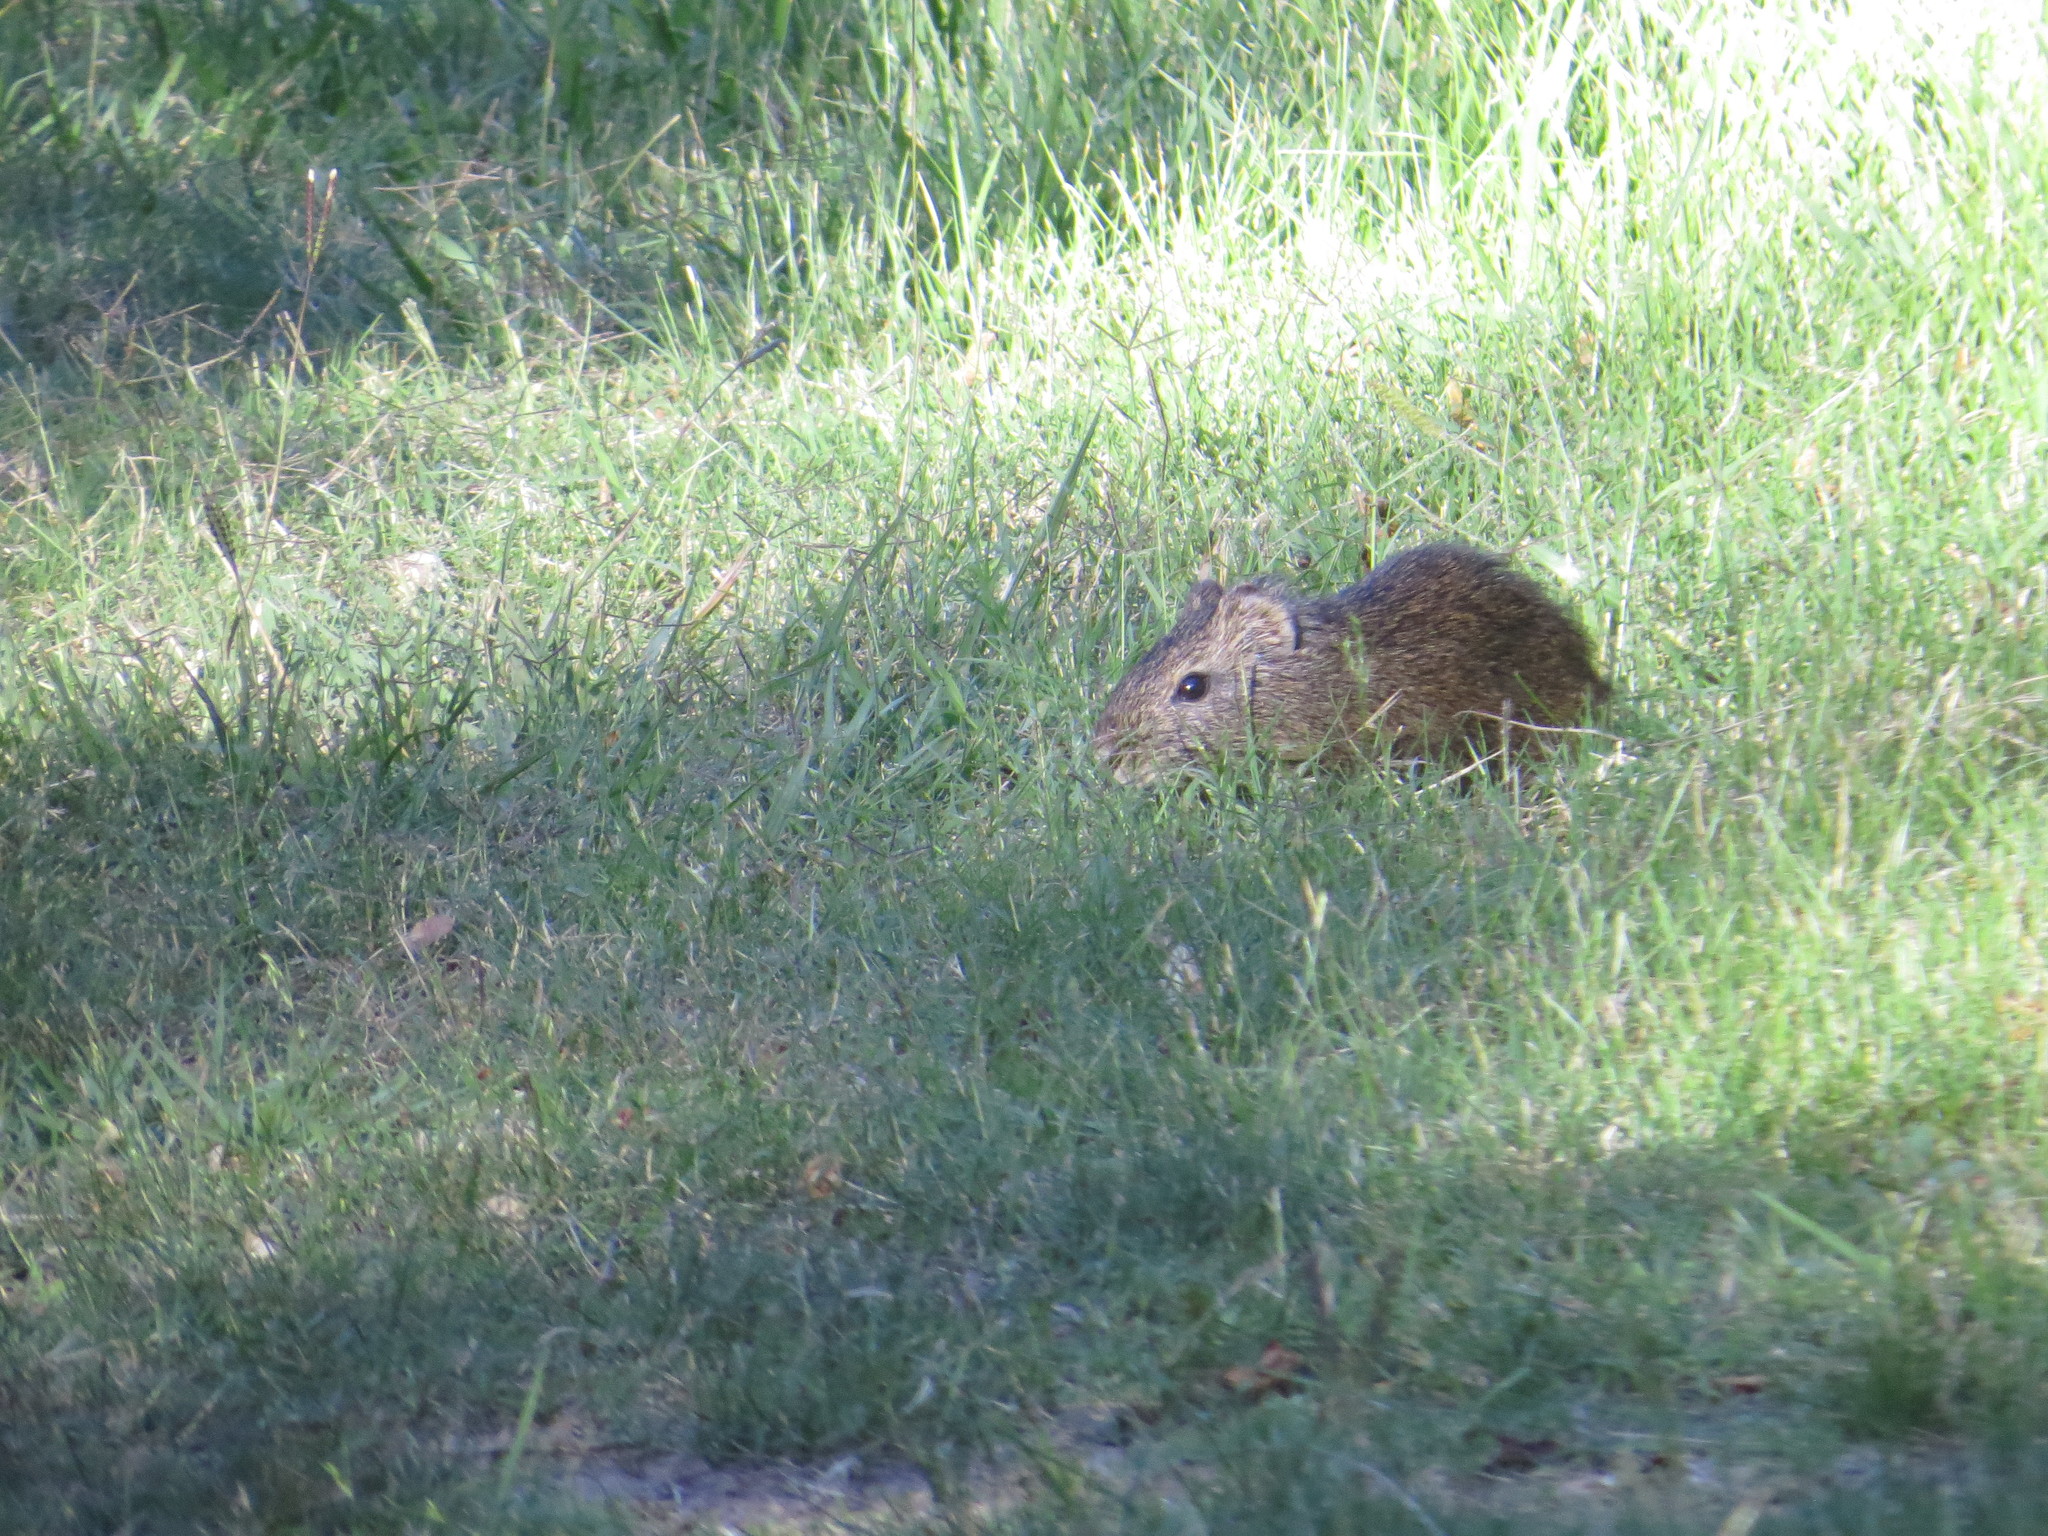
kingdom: Animalia
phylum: Chordata
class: Mammalia
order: Rodentia
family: Caviidae
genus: Cavia
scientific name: Cavia aperea
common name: Brazilian guinea pig
